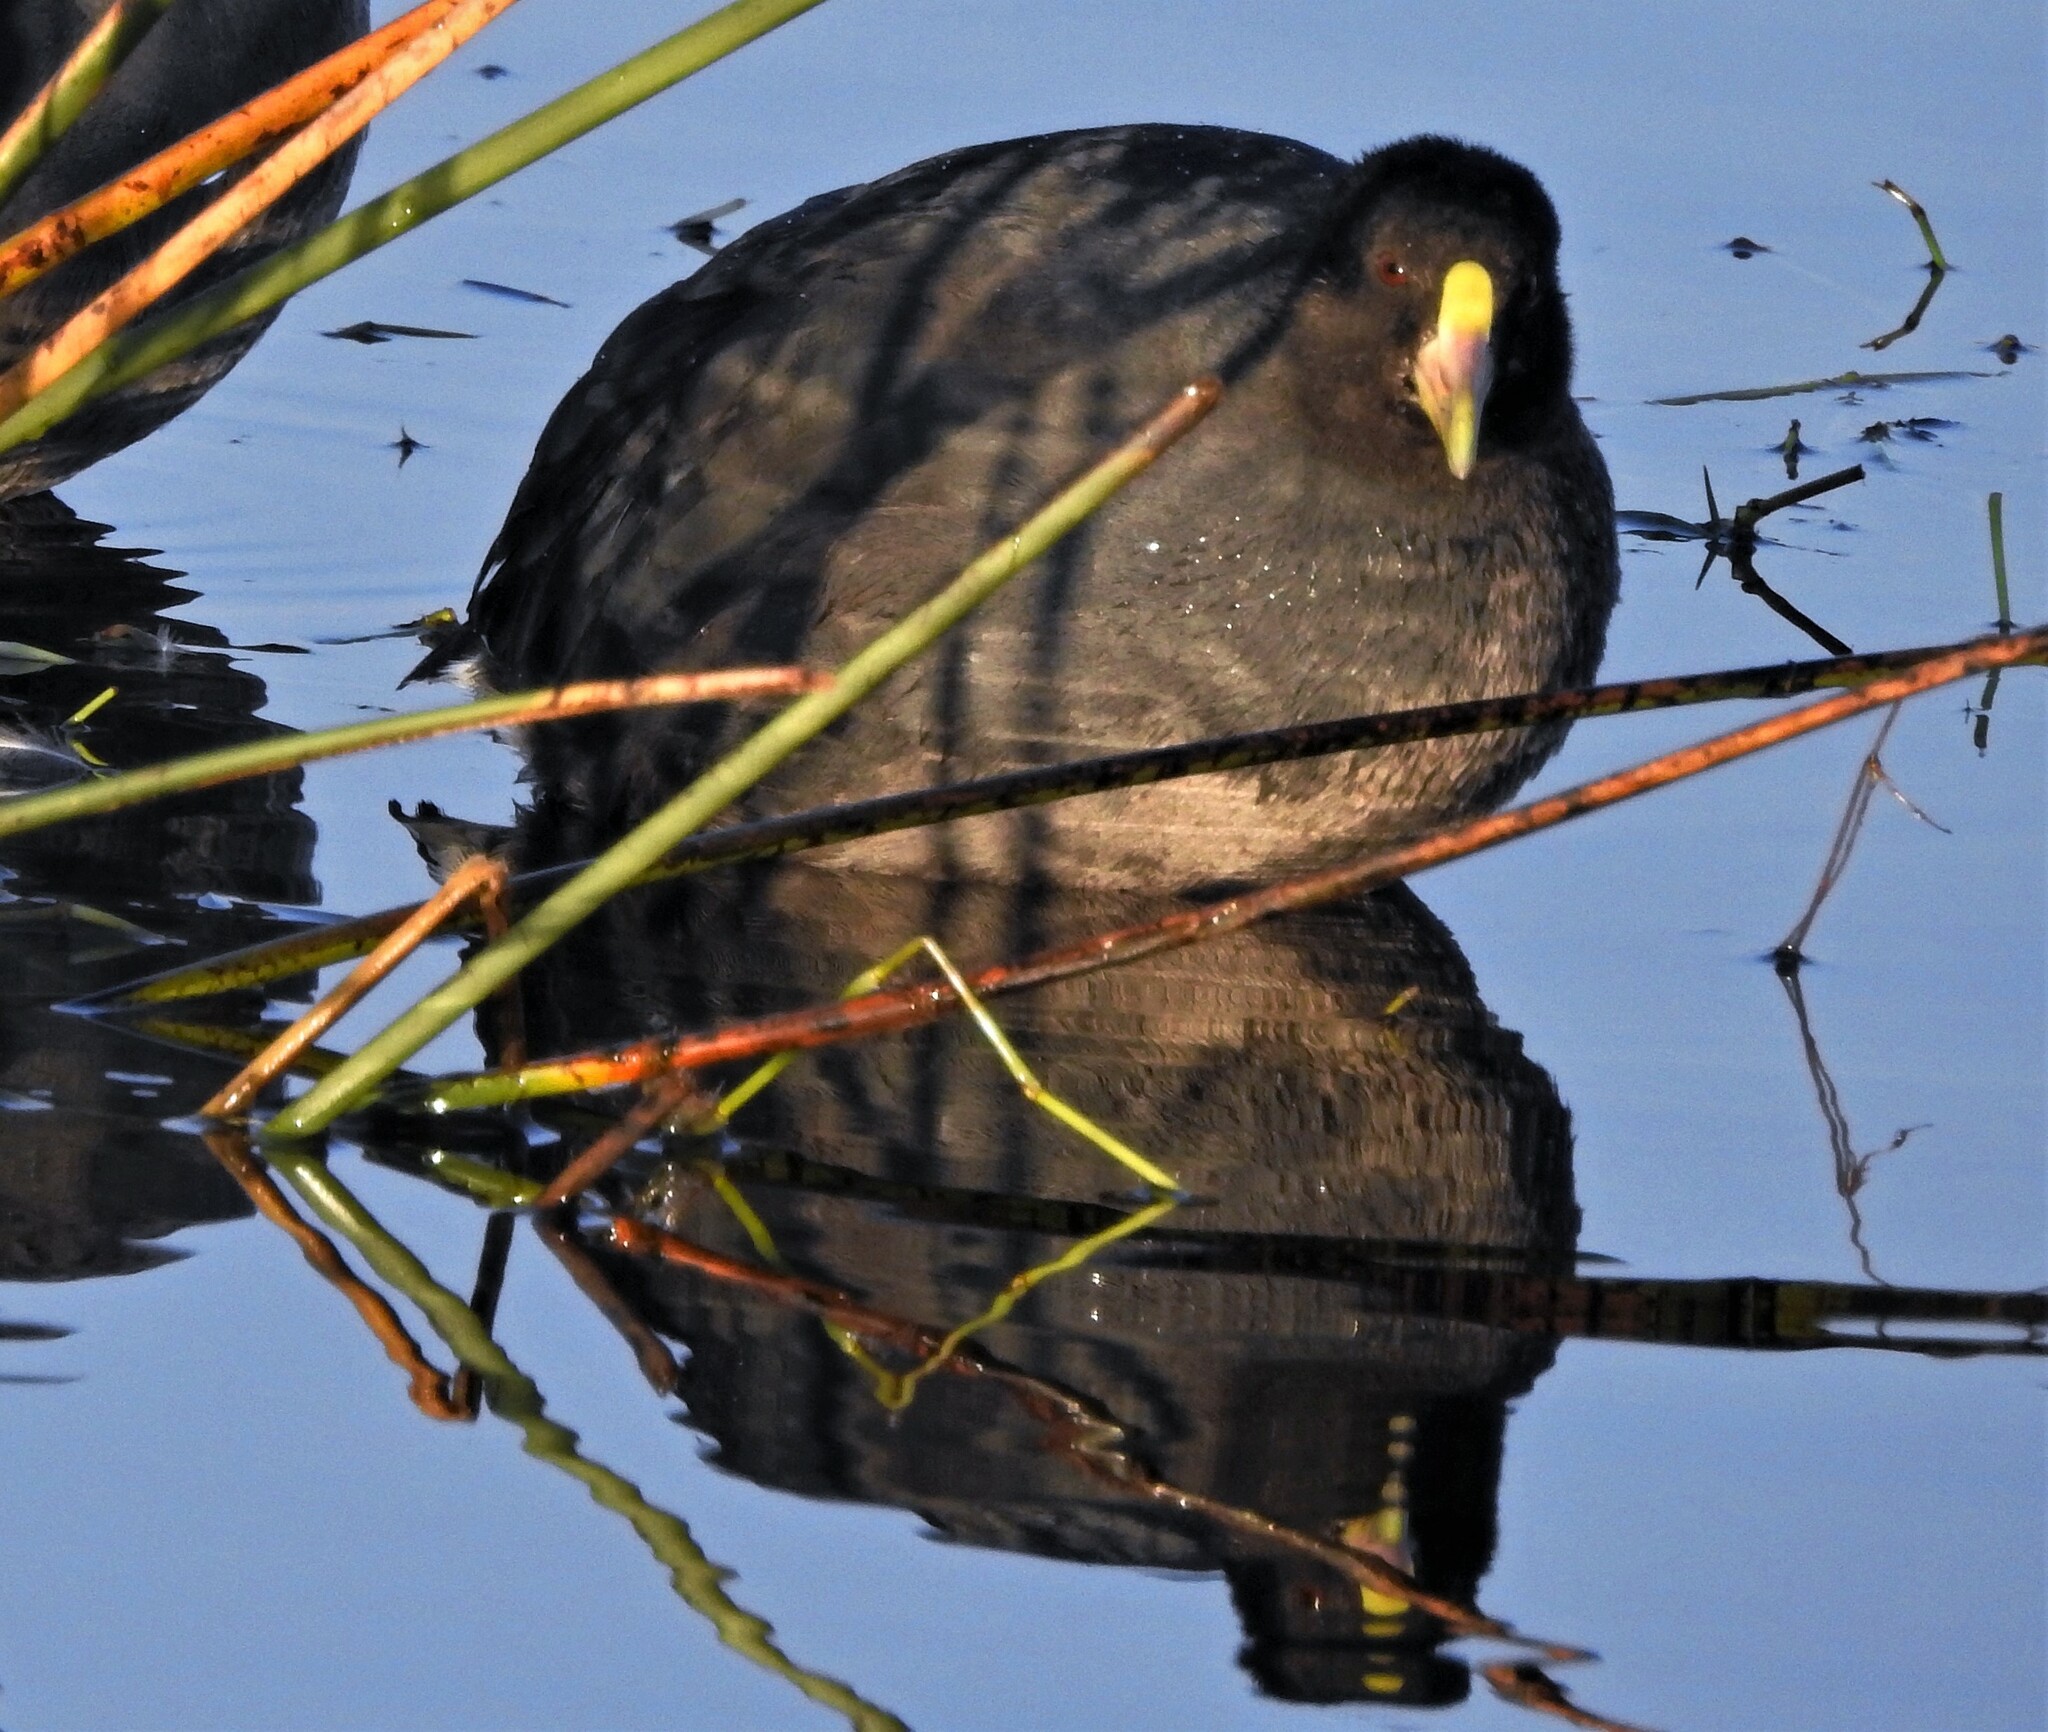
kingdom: Animalia
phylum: Chordata
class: Aves
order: Gruiformes
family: Rallidae
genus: Fulica
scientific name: Fulica leucoptera
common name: White-winged coot
